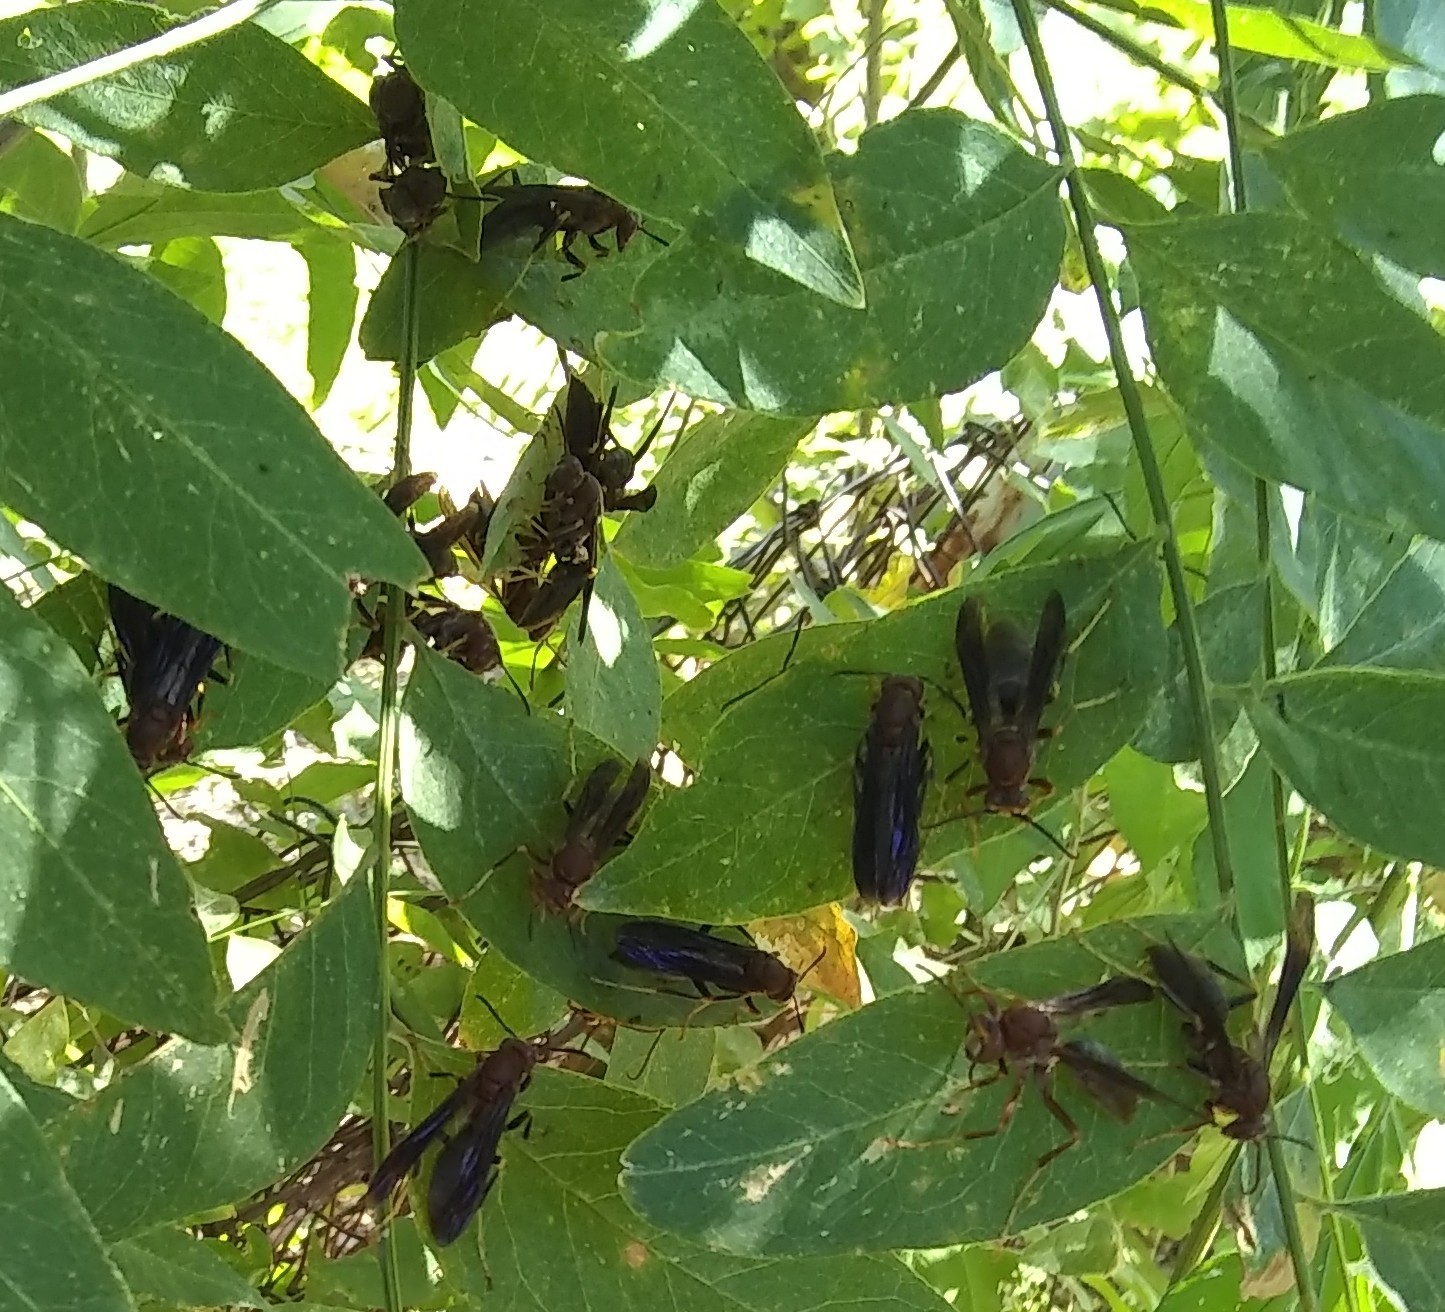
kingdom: Animalia
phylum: Arthropoda
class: Insecta
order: Hymenoptera
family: Eumenidae
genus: Polistes
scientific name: Polistes metricus
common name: Metric paper wasp
